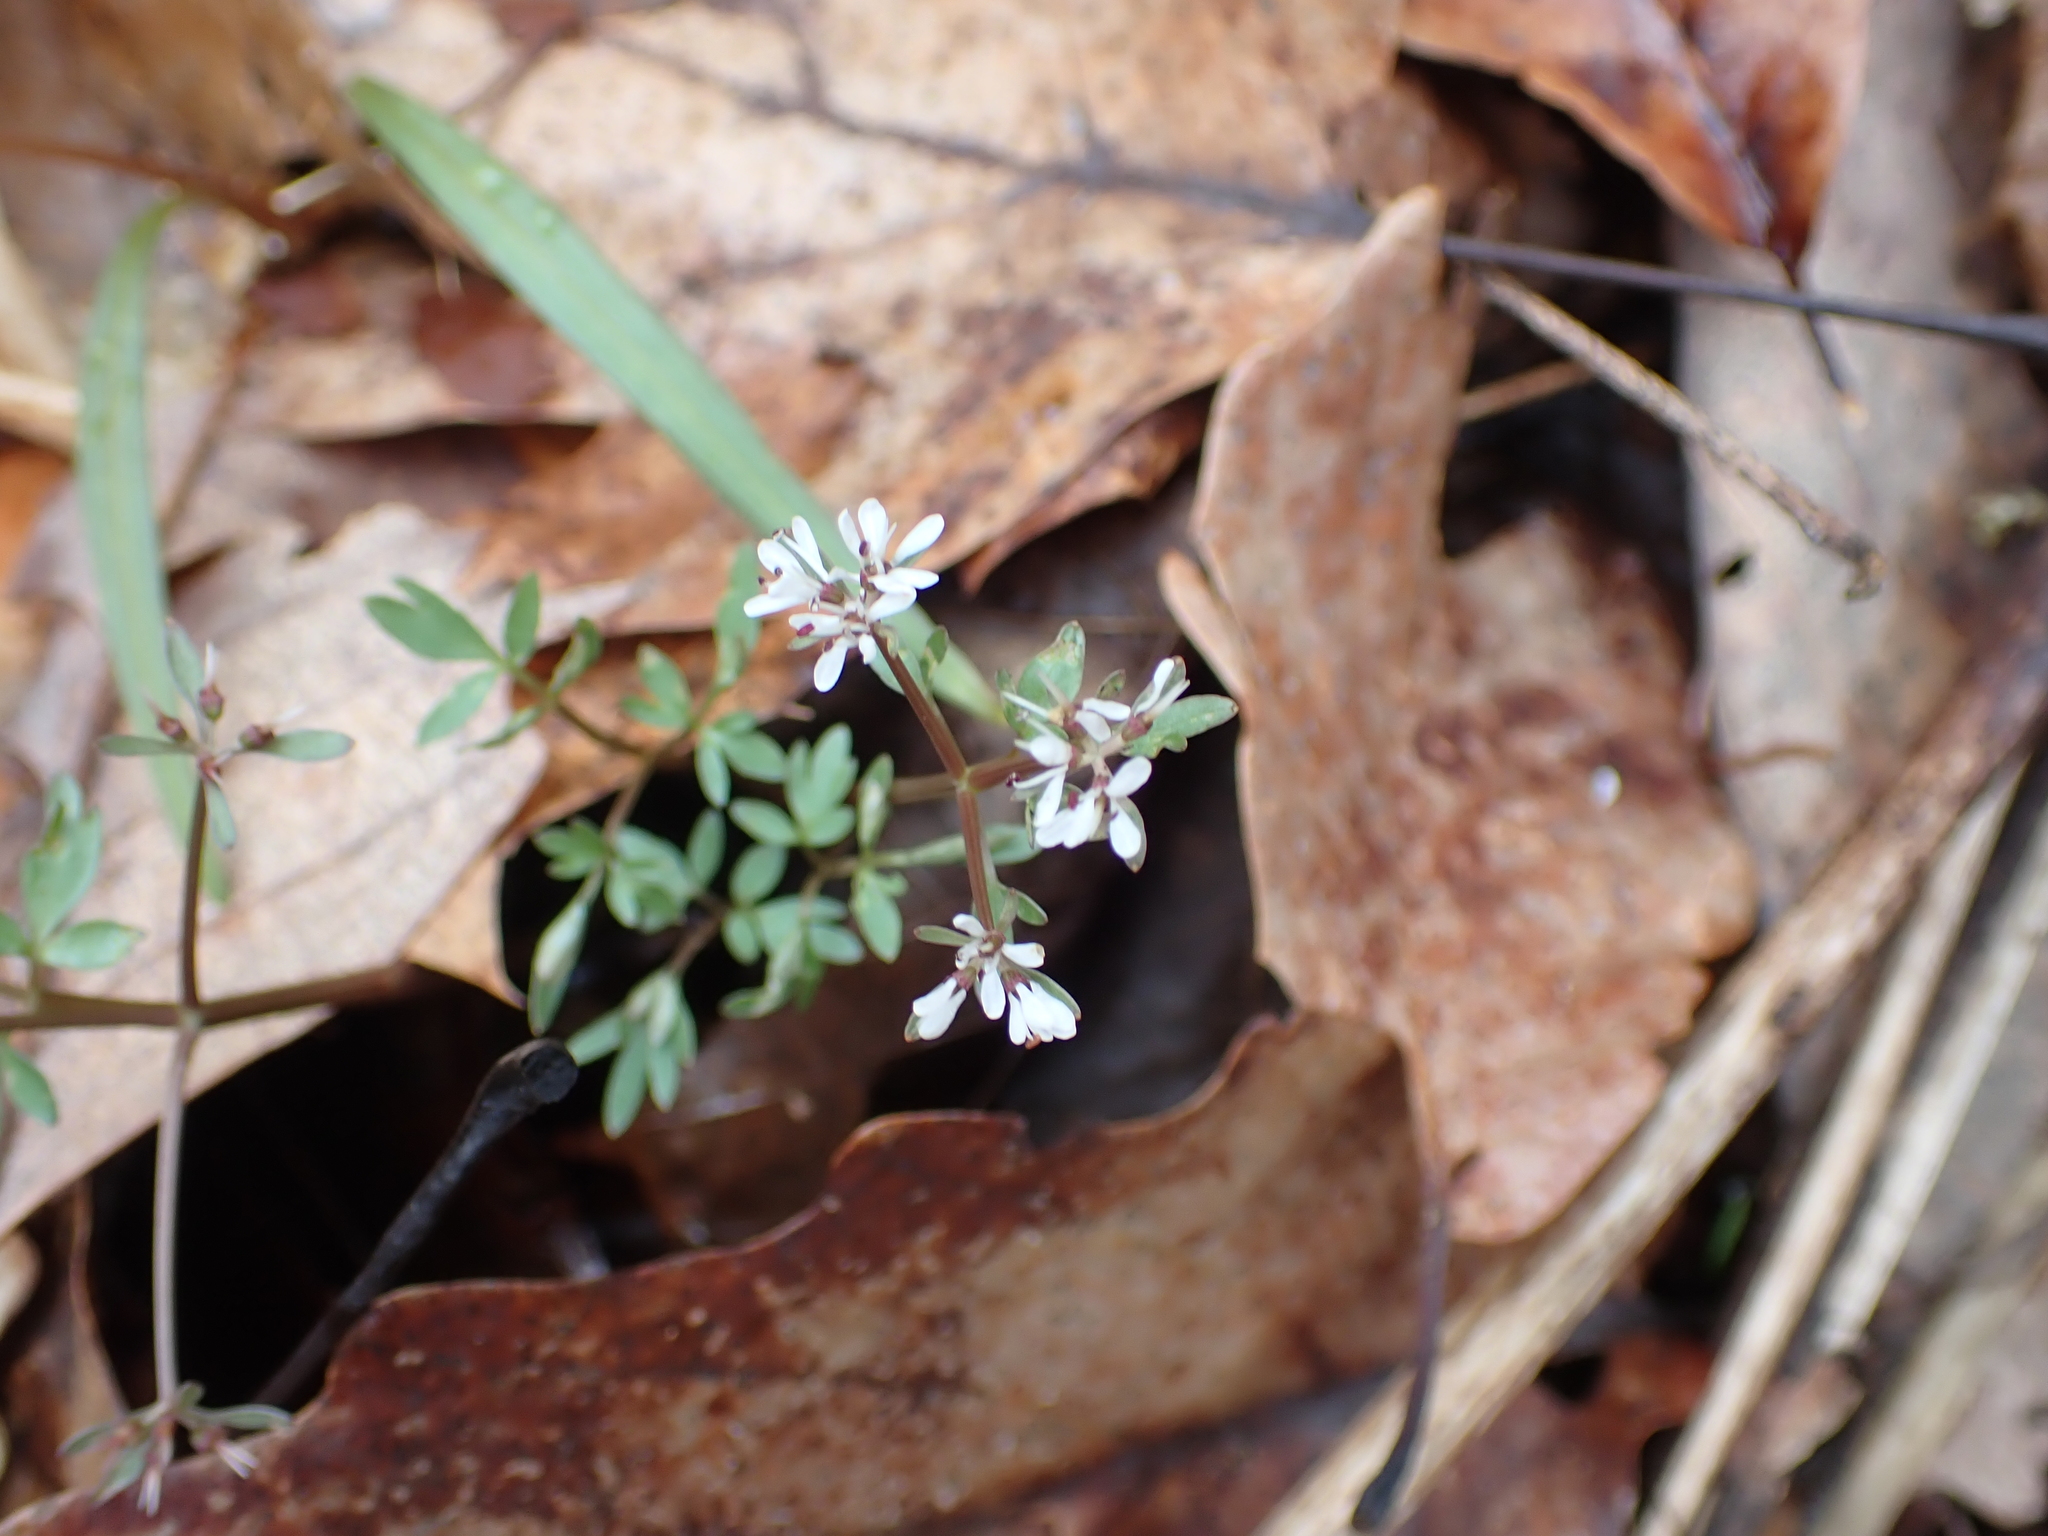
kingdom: Plantae
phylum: Tracheophyta
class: Magnoliopsida
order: Apiales
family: Apiaceae
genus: Erigenia
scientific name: Erigenia bulbosa
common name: Pepper-and-salt
